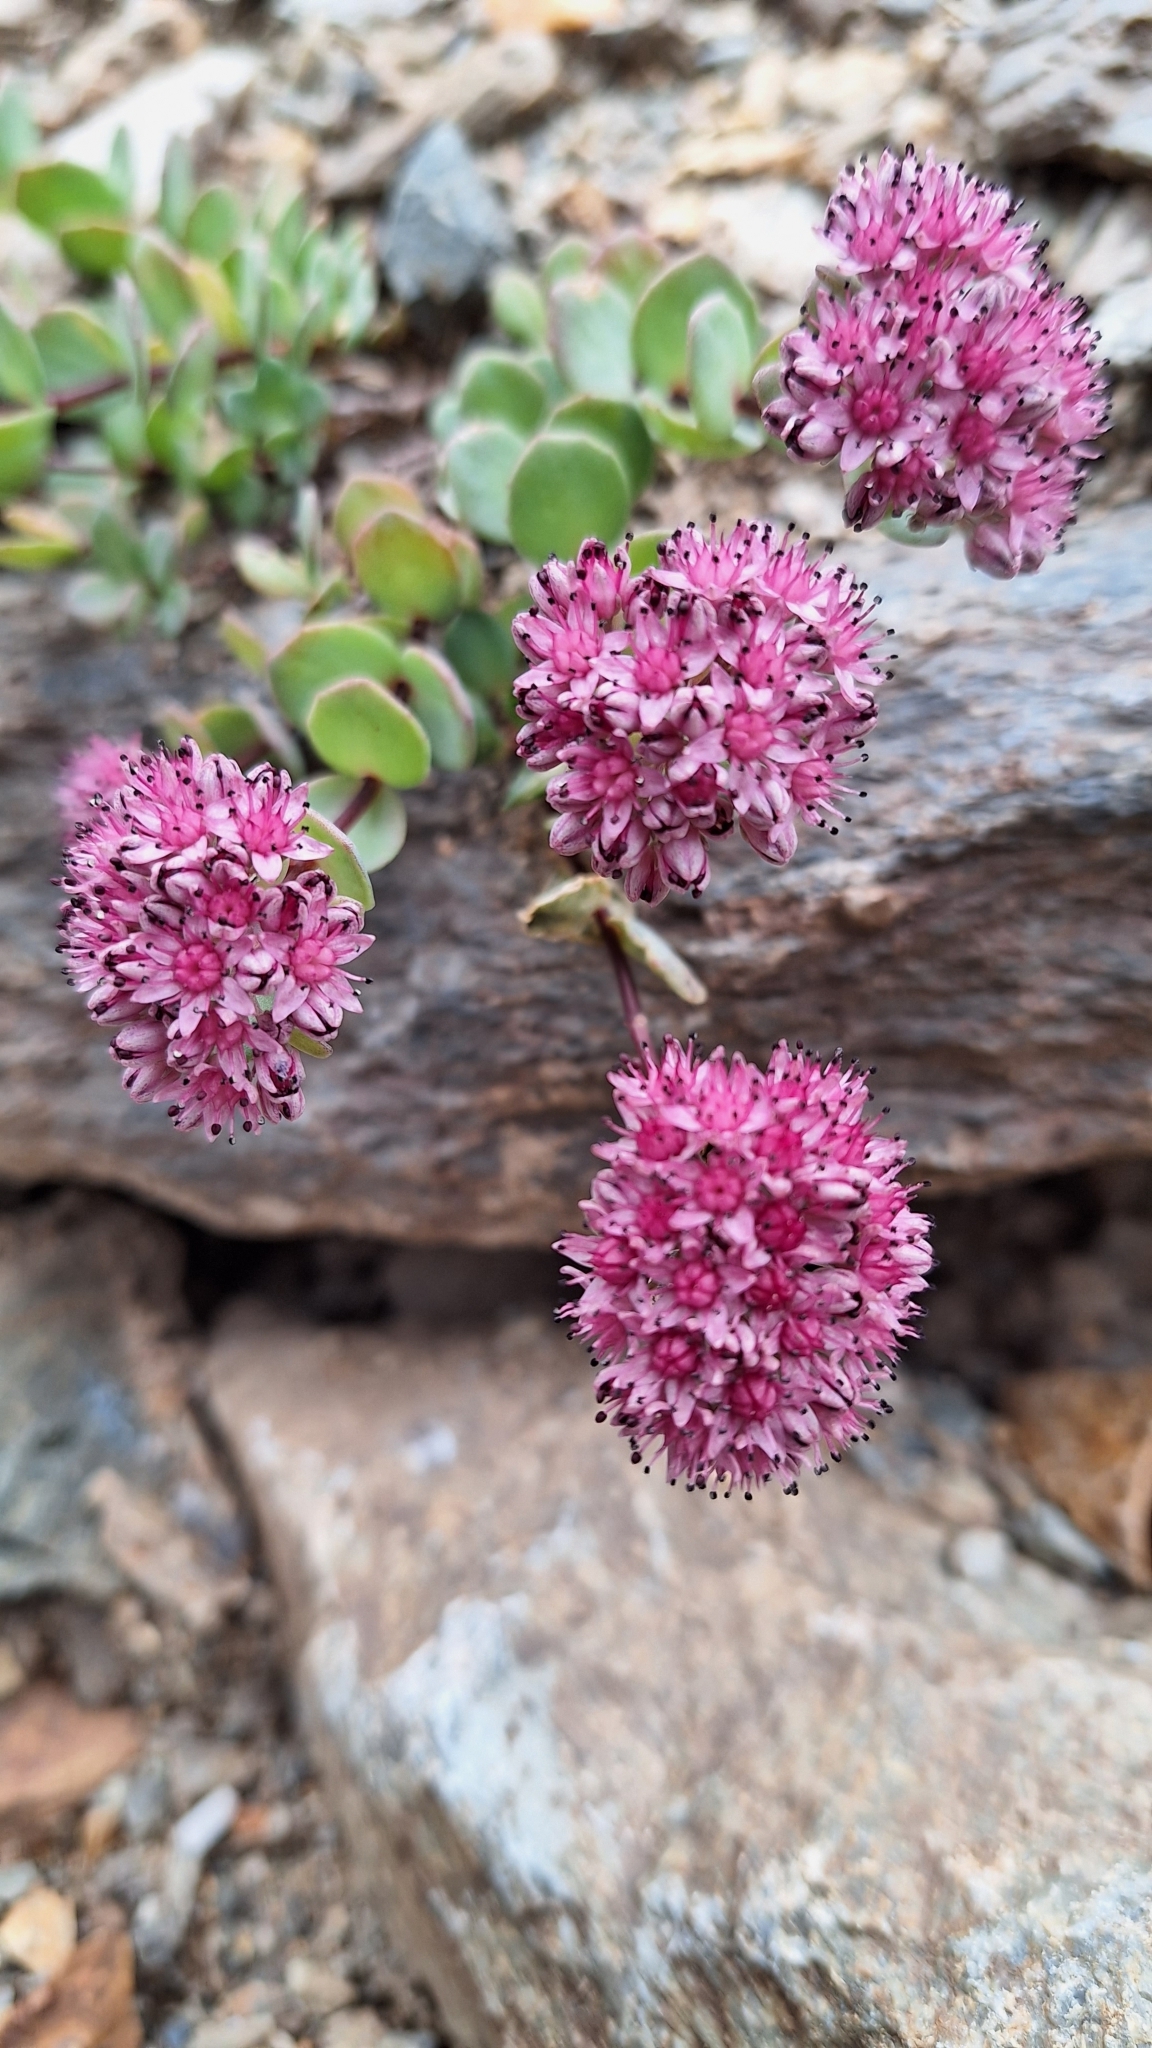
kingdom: Plantae
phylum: Tracheophyta
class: Magnoliopsida
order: Saxifragales
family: Crassulaceae
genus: Hylotelephium
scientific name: Hylotelephium ewersii
